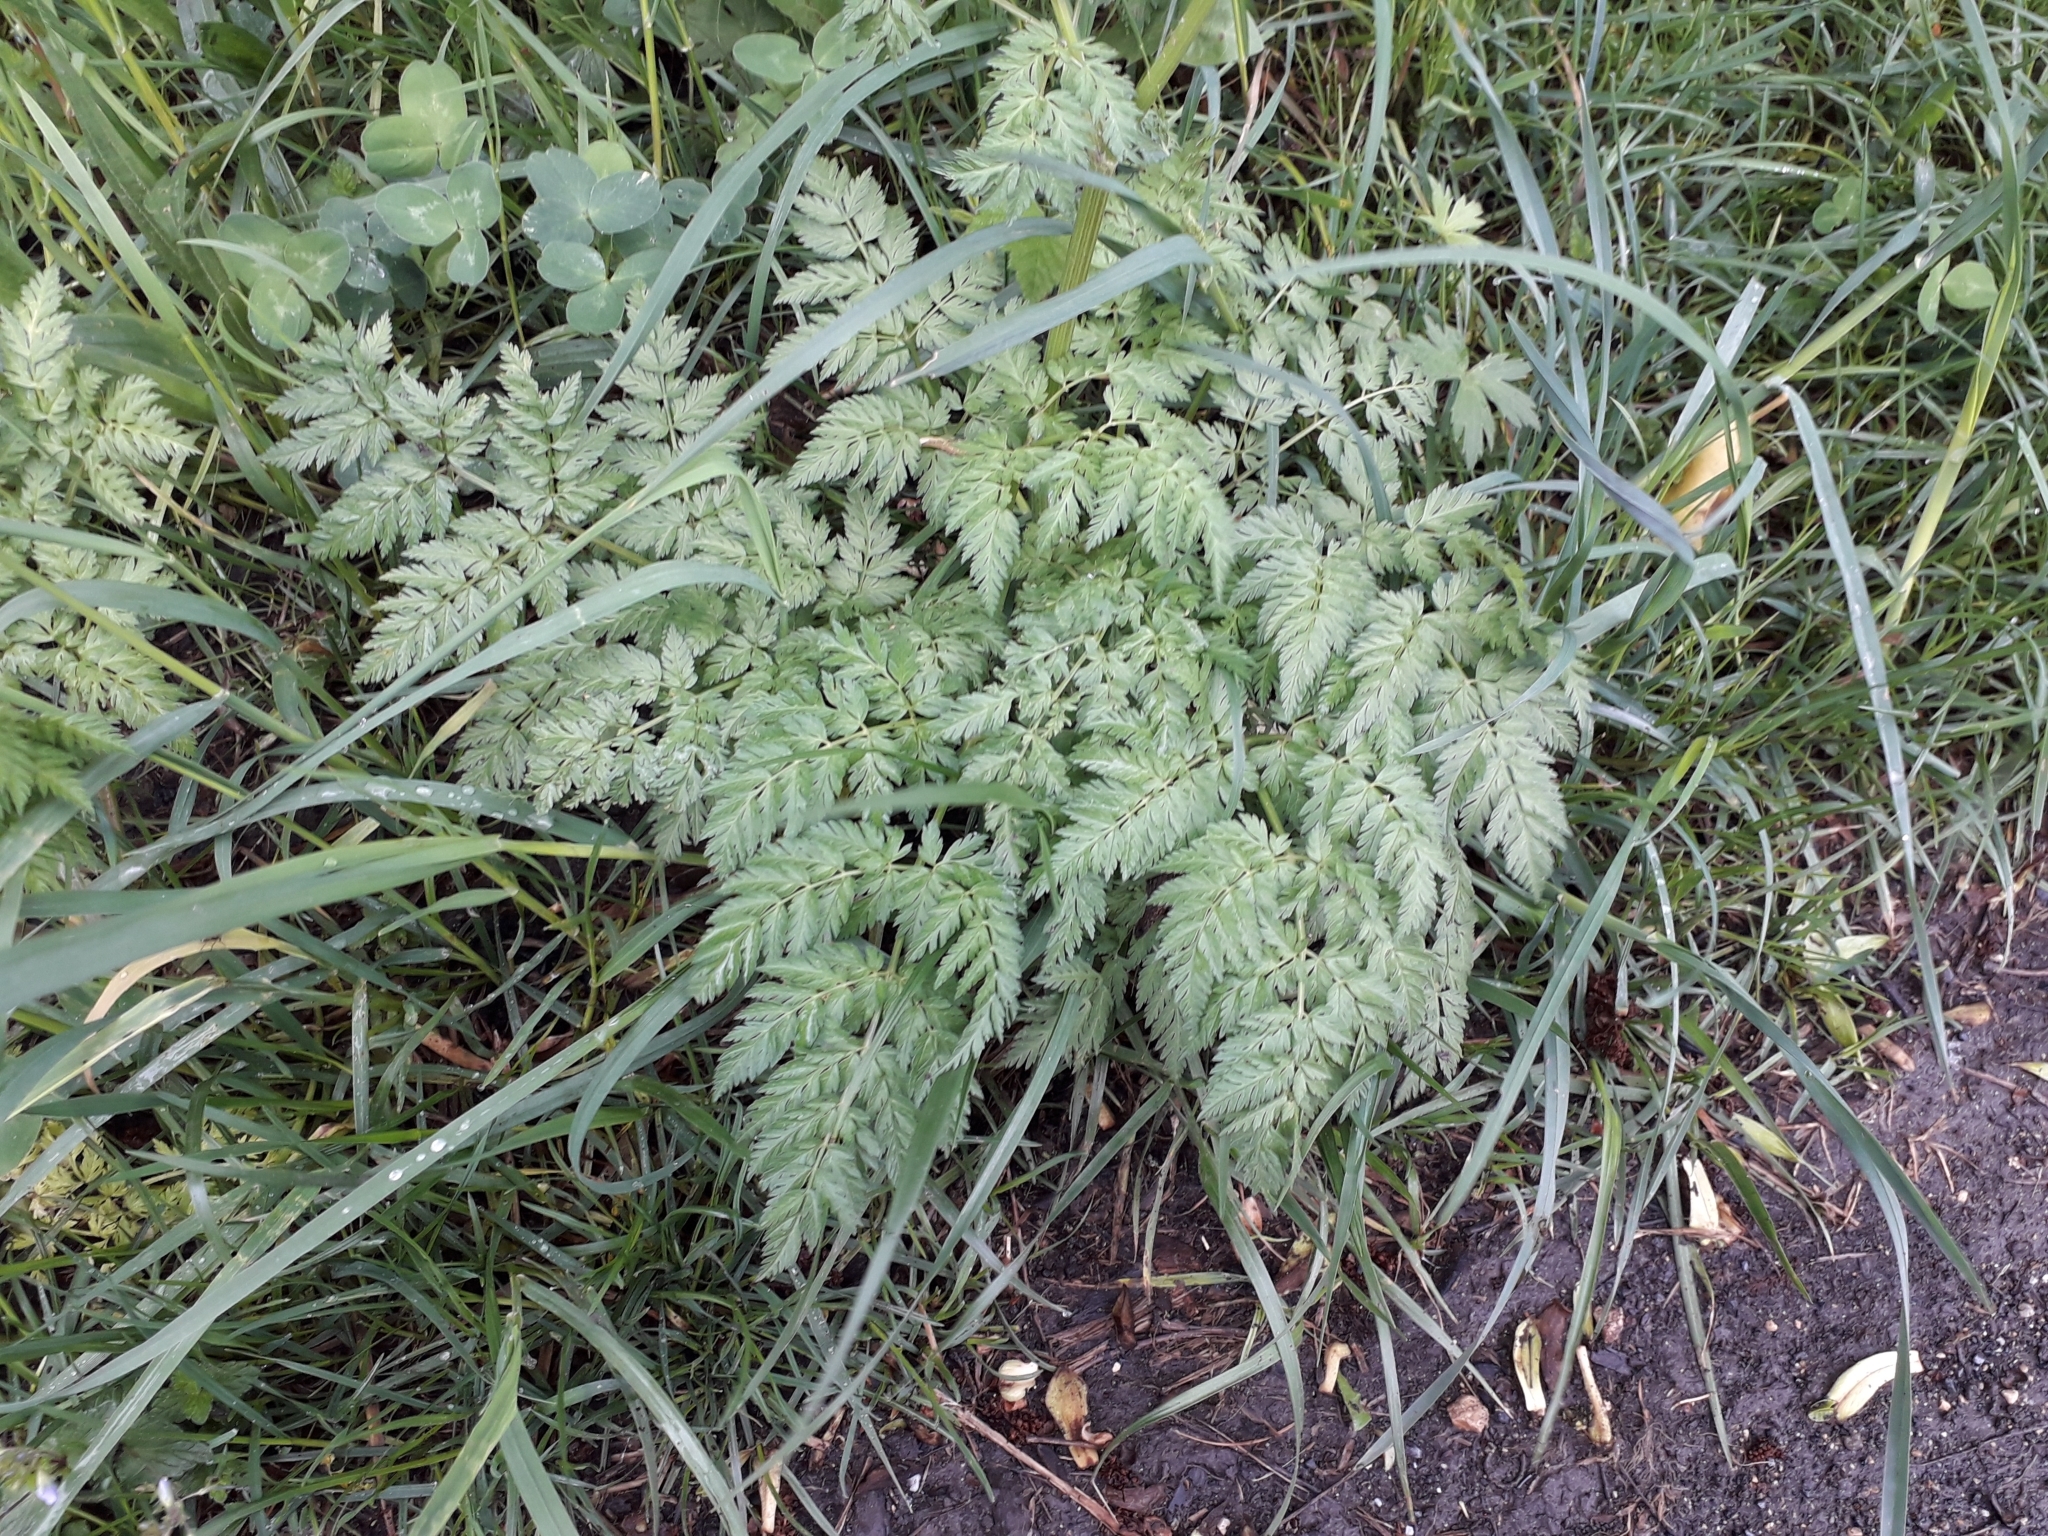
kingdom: Plantae
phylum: Tracheophyta
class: Magnoliopsida
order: Apiales
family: Apiaceae
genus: Anthriscus
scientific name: Anthriscus sylvestris
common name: Cow parsley
